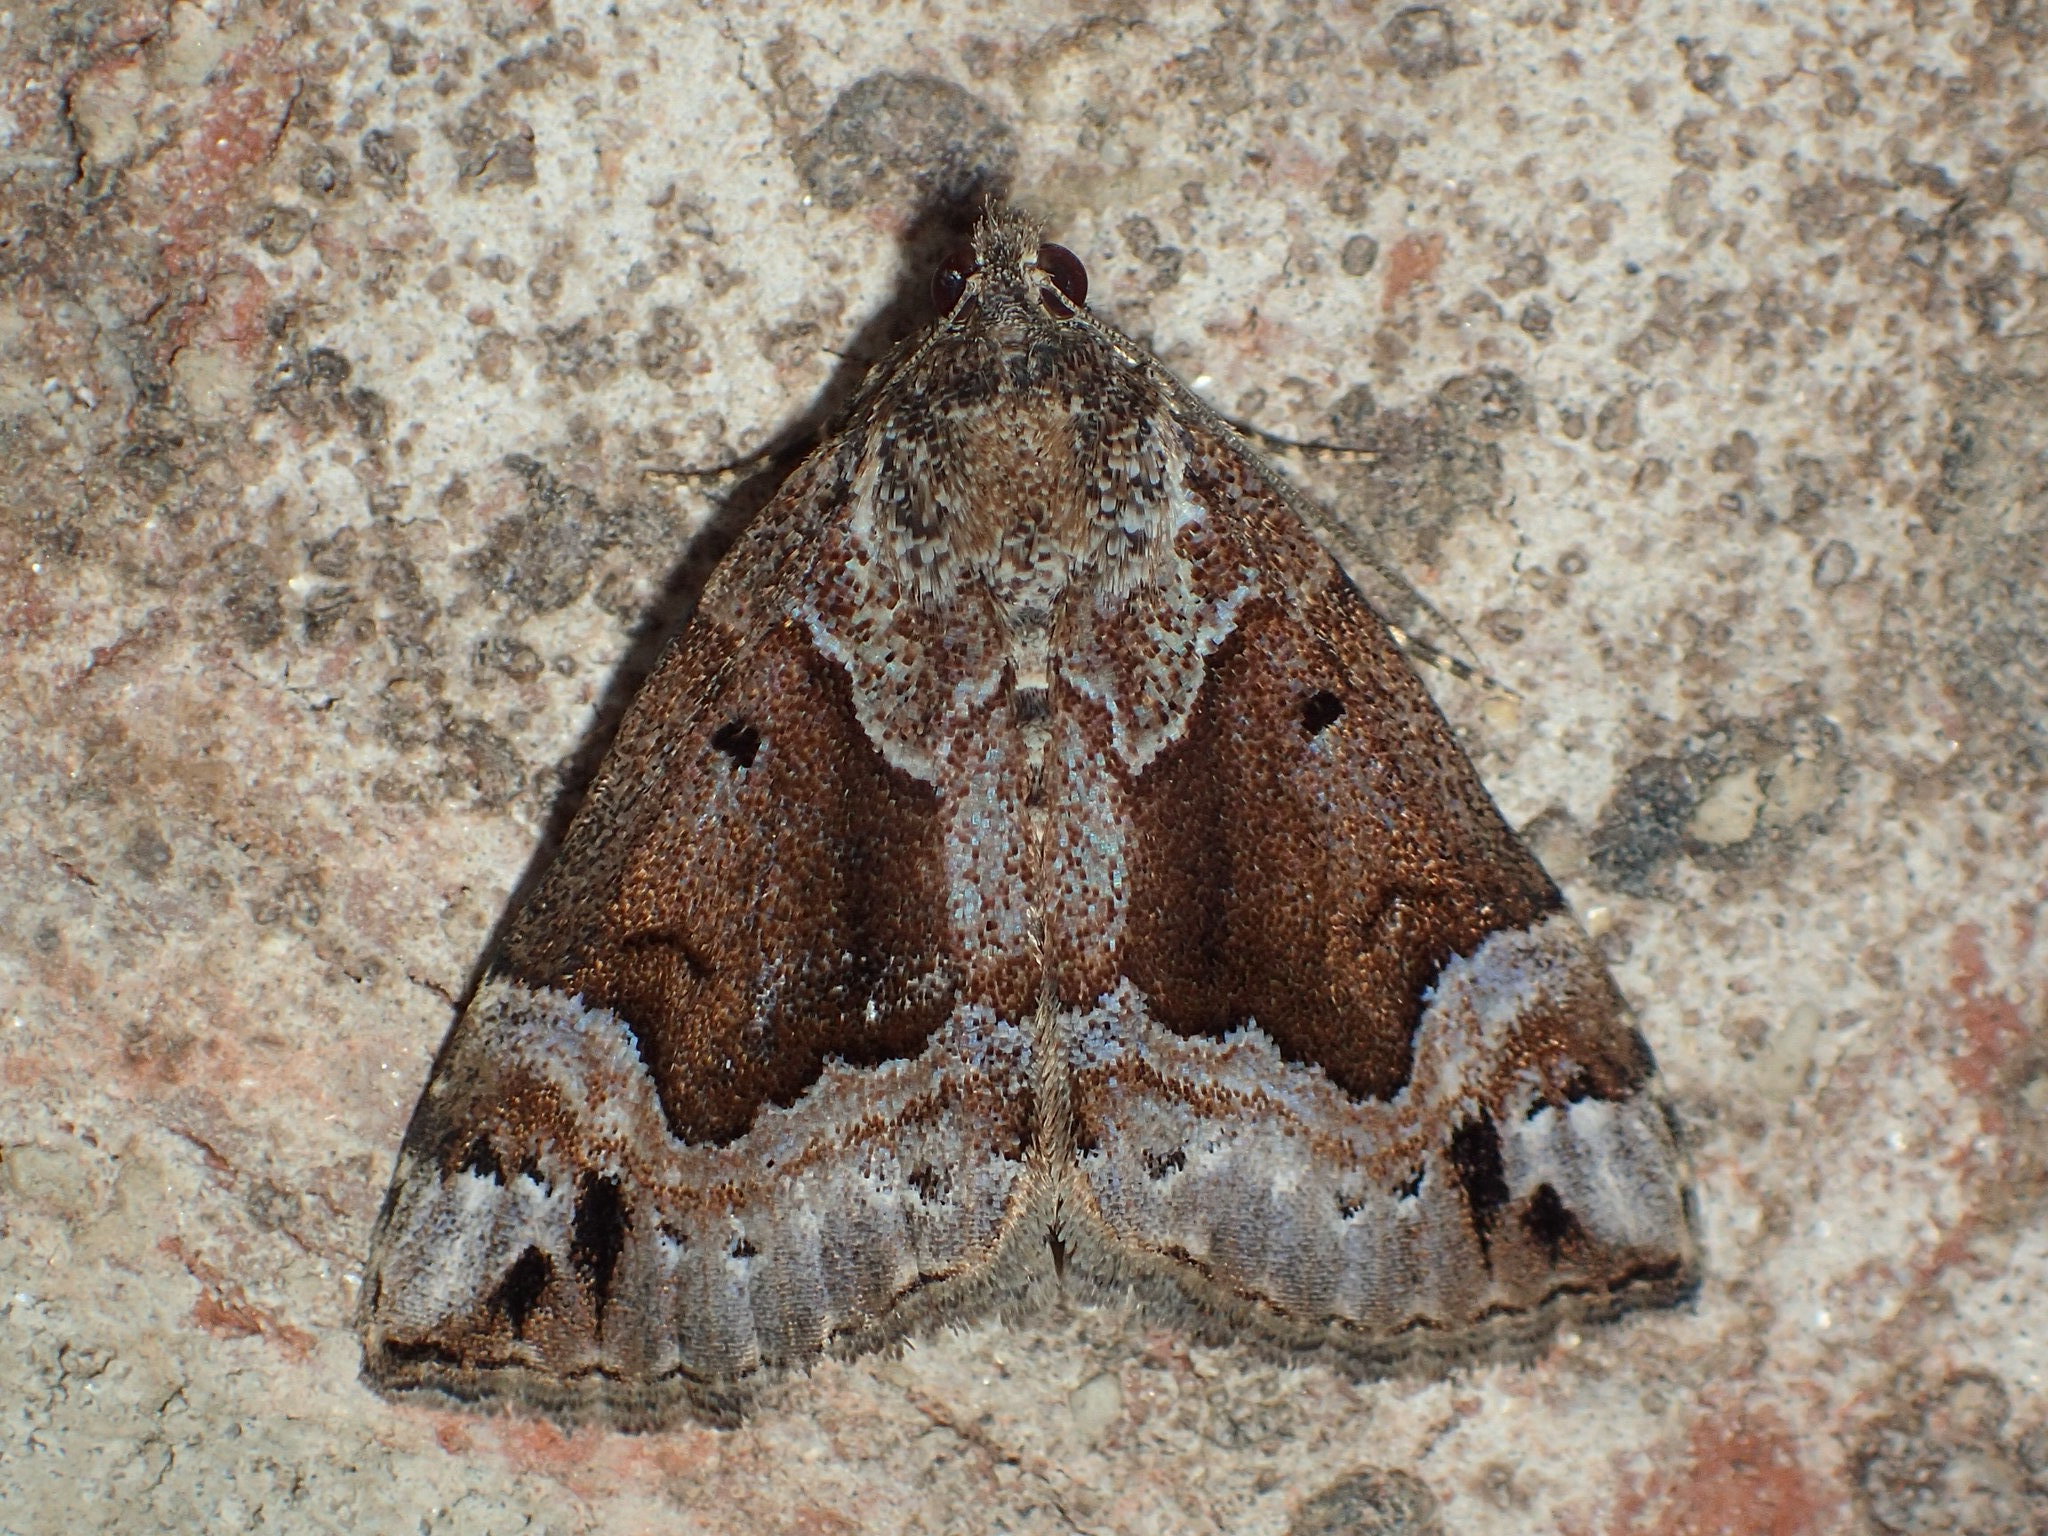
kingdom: Animalia
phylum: Arthropoda
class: Insecta
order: Lepidoptera
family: Erebidae
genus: Hypena
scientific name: Hypena palparia
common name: Mottled bomolocha moth
